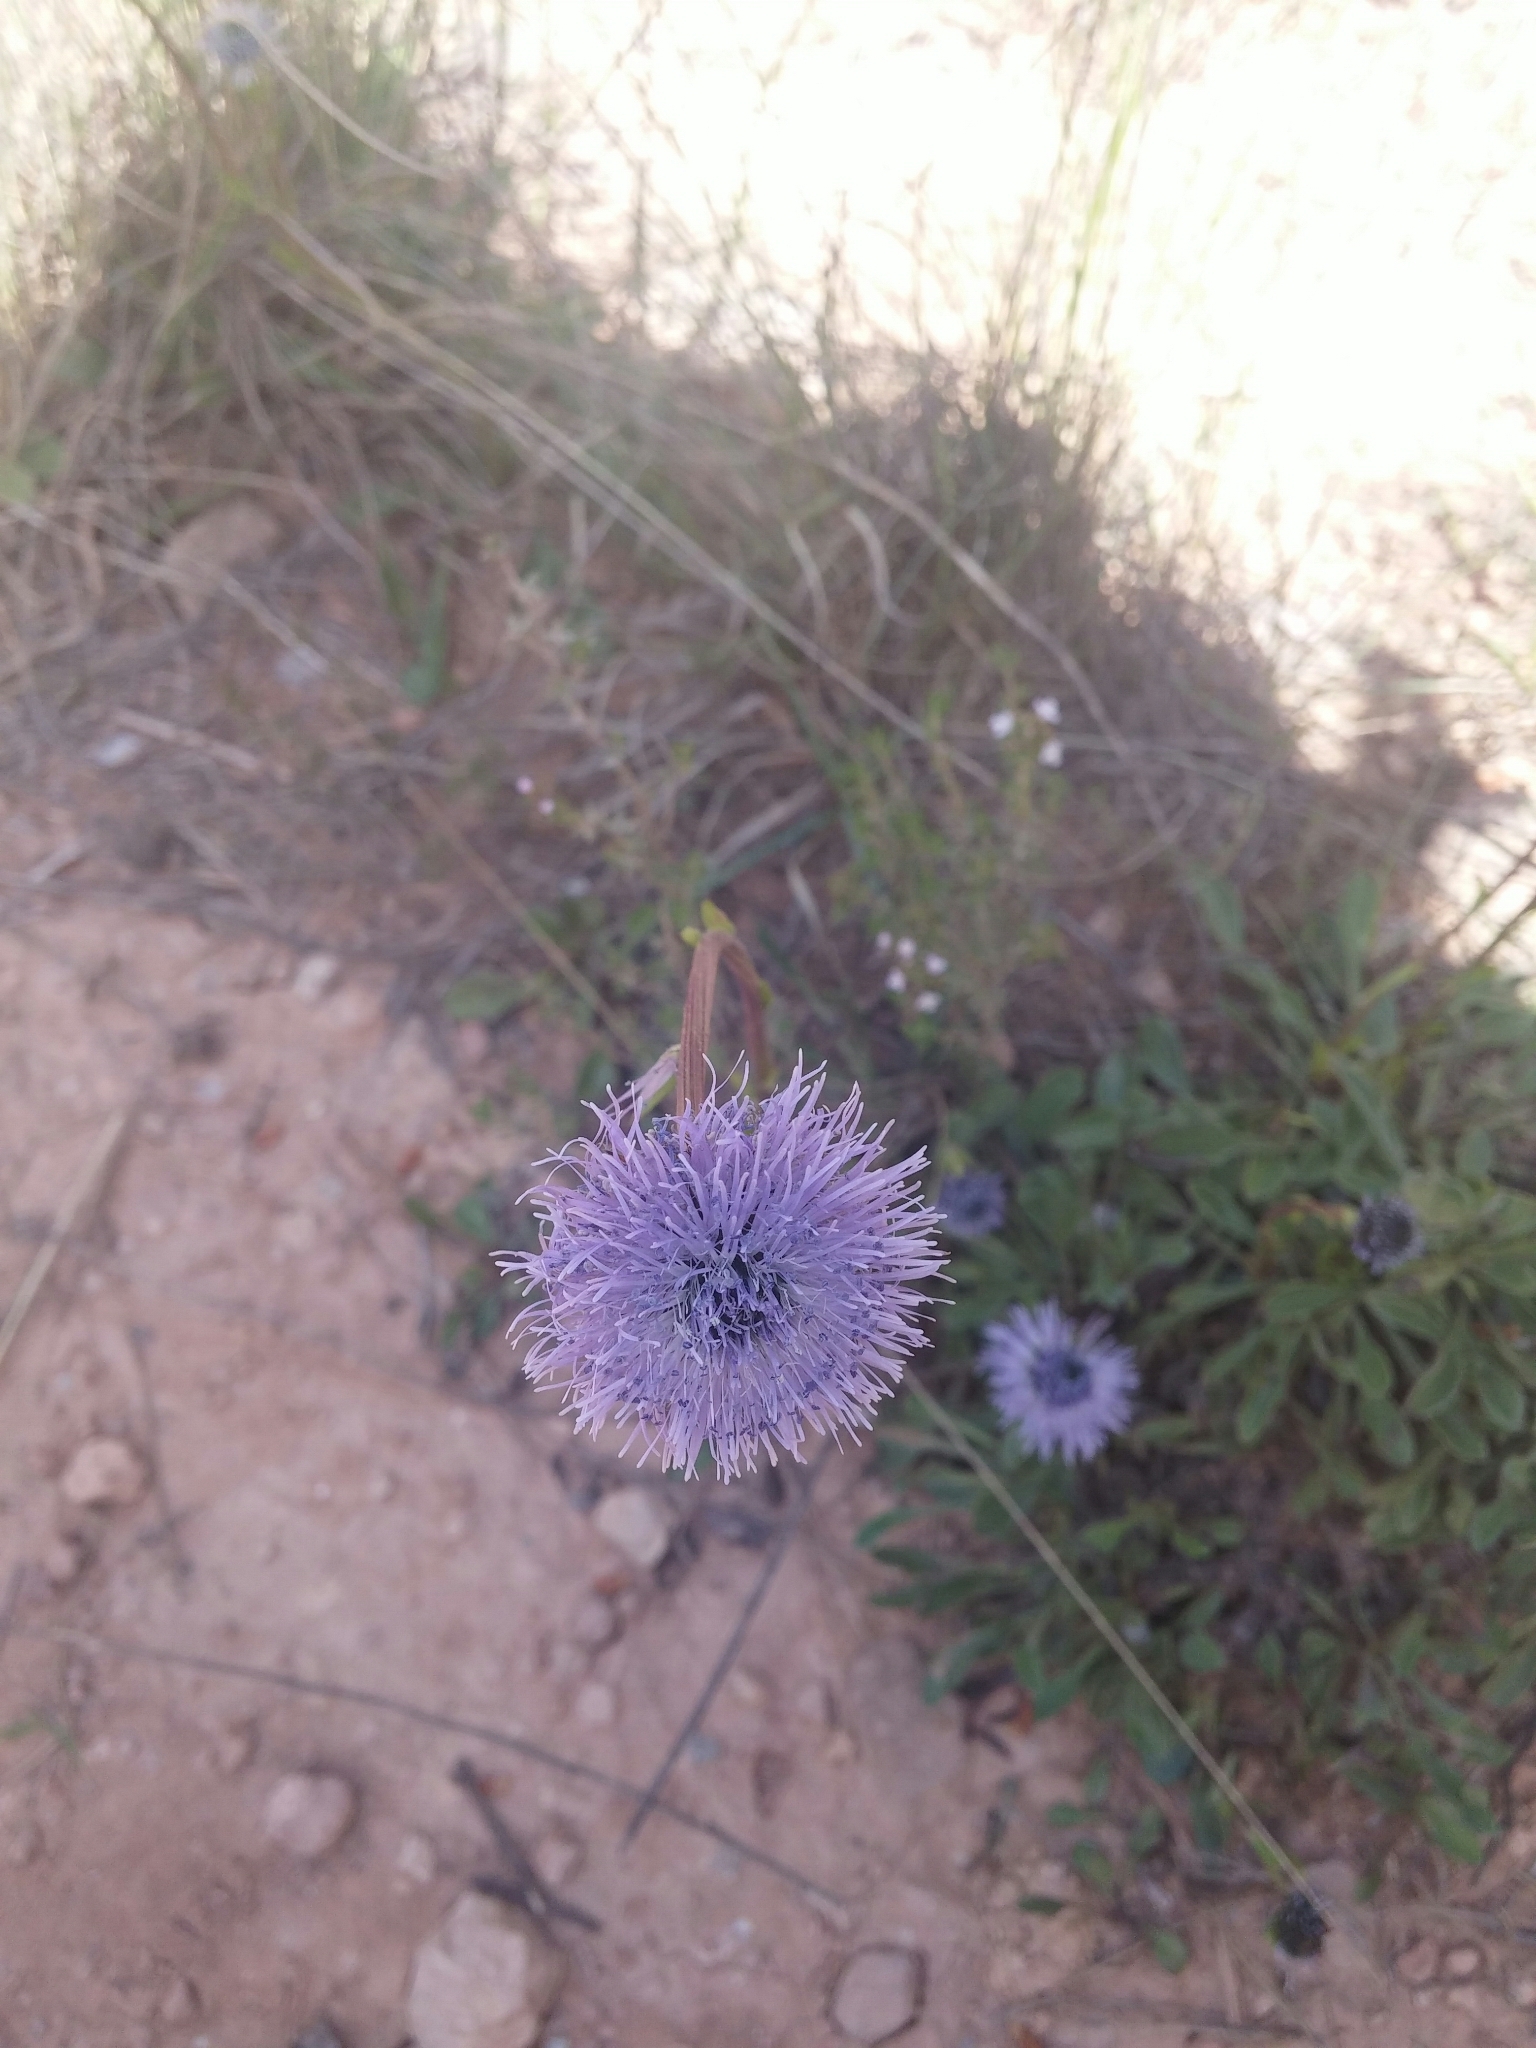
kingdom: Plantae
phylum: Tracheophyta
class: Magnoliopsida
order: Lamiales
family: Plantaginaceae
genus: Globularia
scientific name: Globularia alypum
